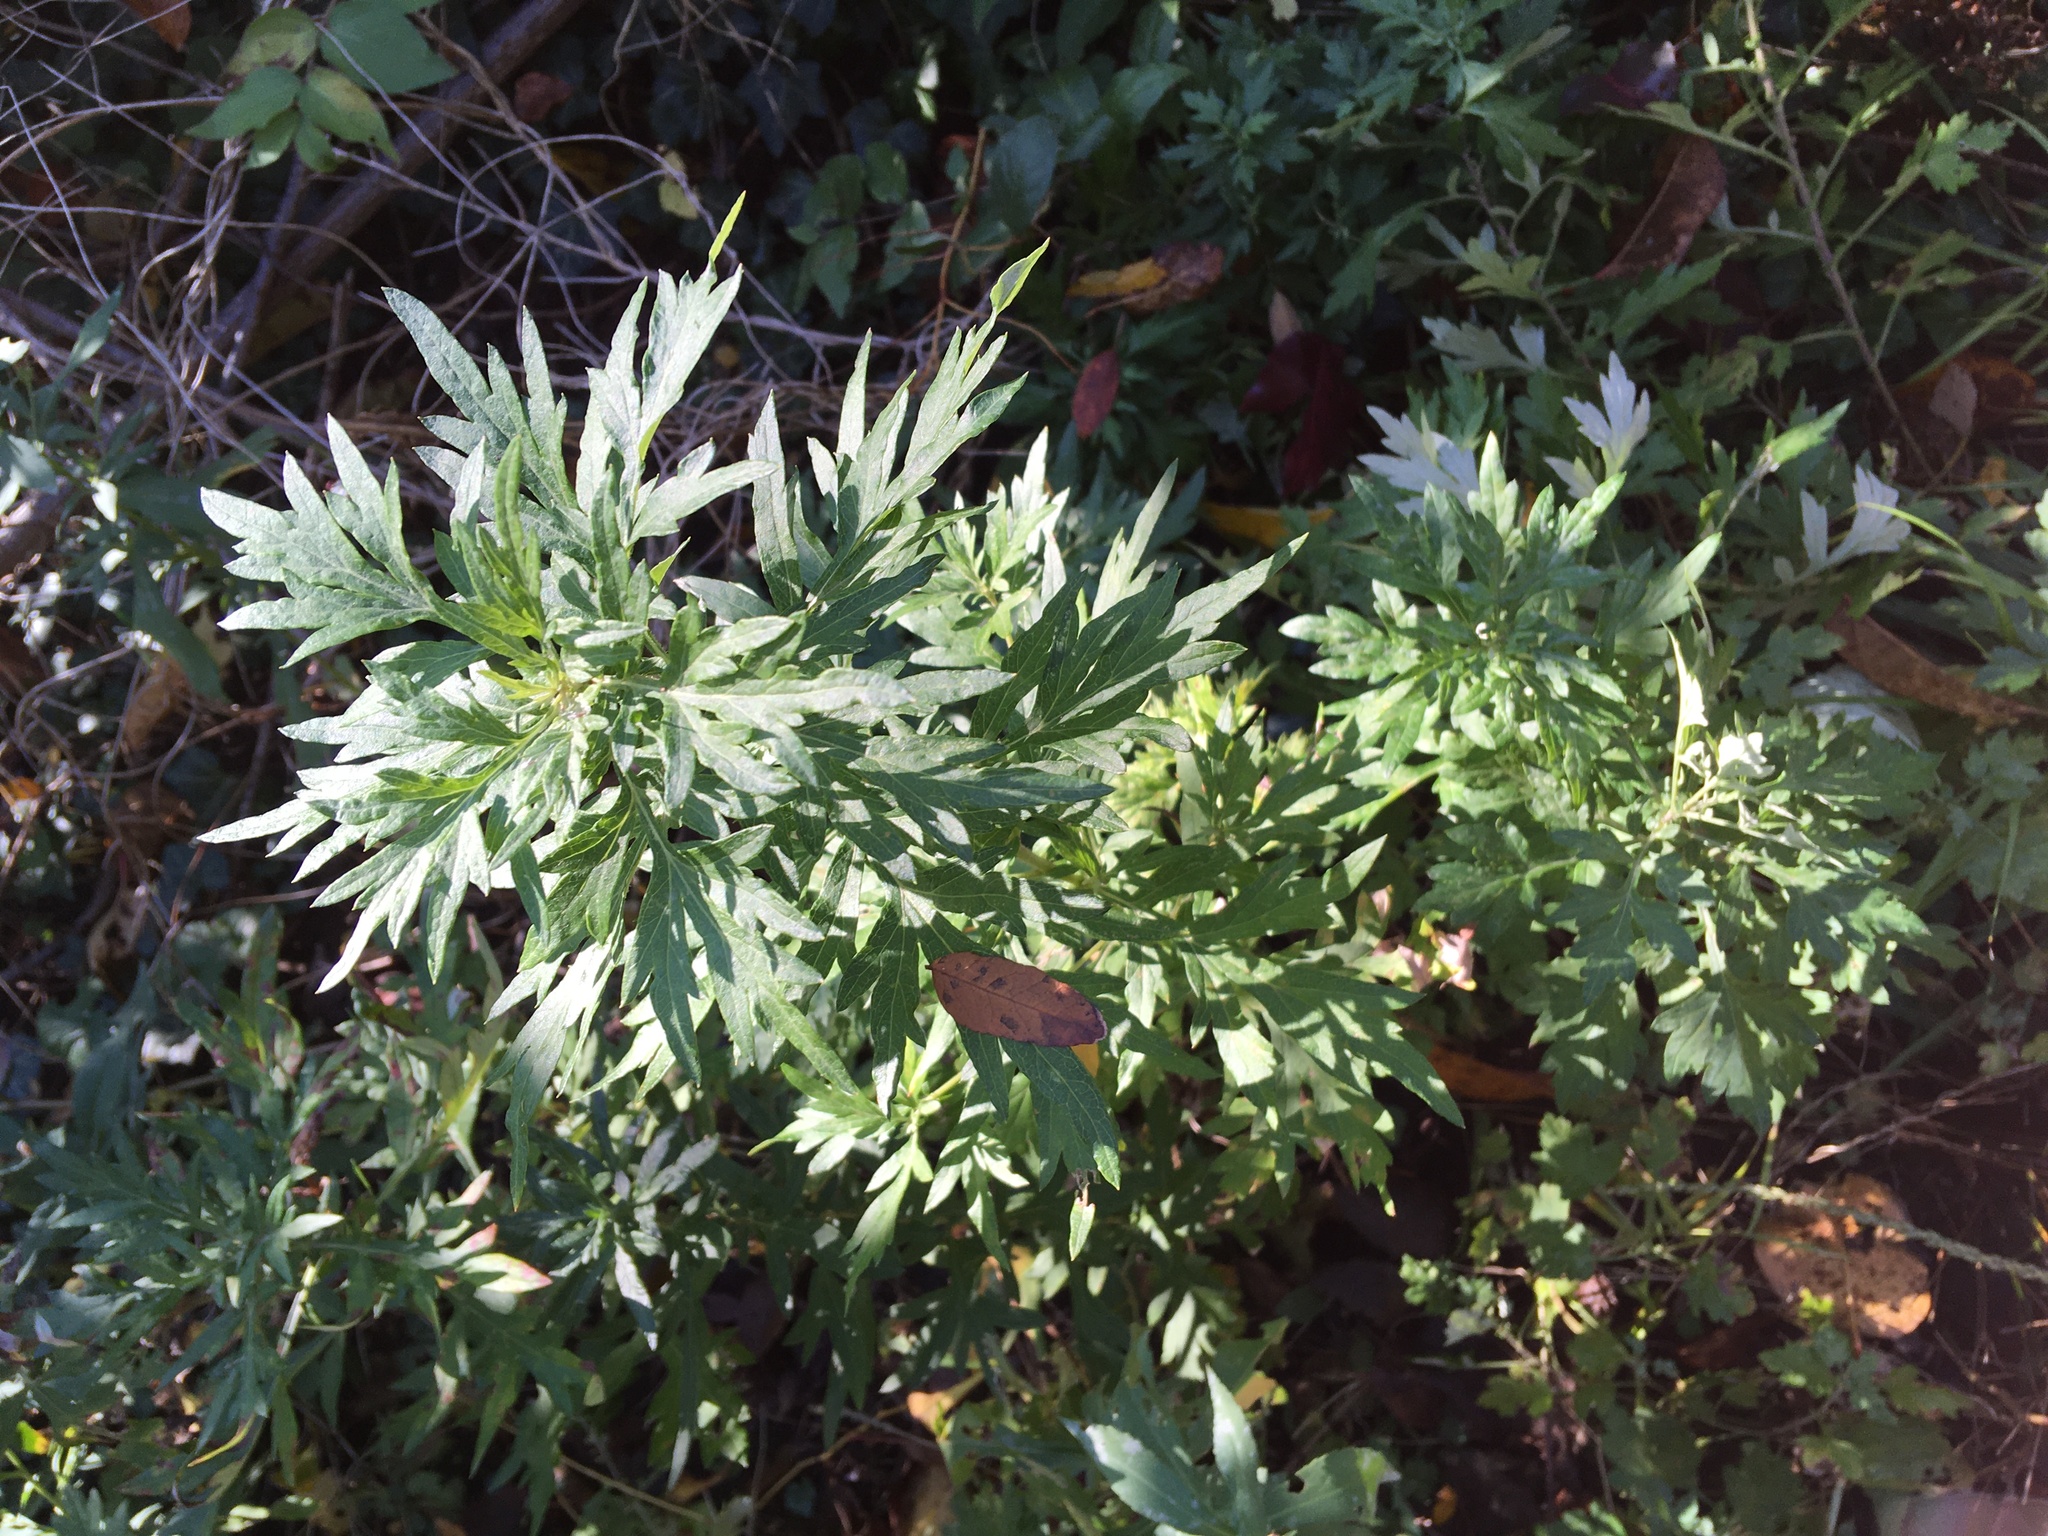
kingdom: Plantae
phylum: Tracheophyta
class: Magnoliopsida
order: Asterales
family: Asteraceae
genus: Artemisia
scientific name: Artemisia vulgaris
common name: Mugwort
